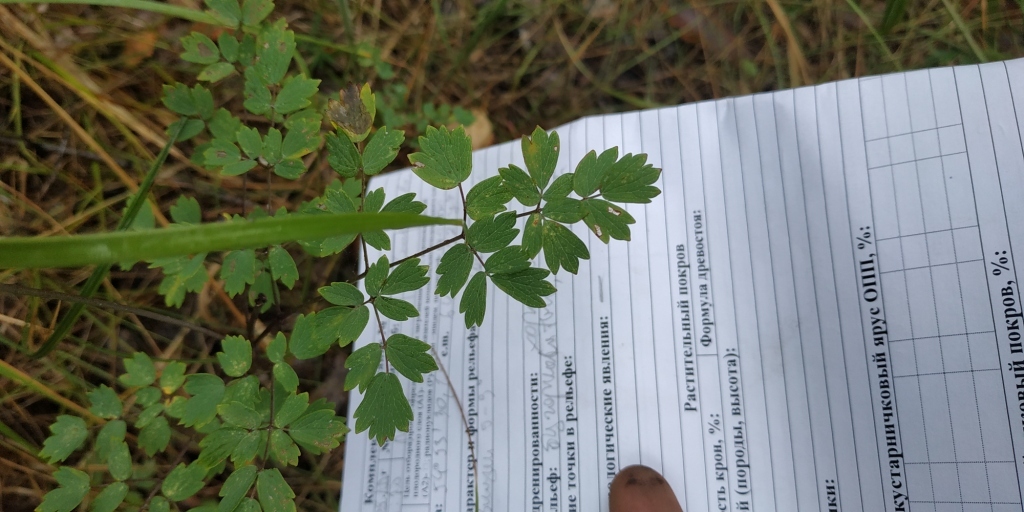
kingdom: Plantae
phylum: Tracheophyta
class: Magnoliopsida
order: Ranunculales
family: Ranunculaceae
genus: Thalictrum
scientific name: Thalictrum minus
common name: Lesser meadow-rue
